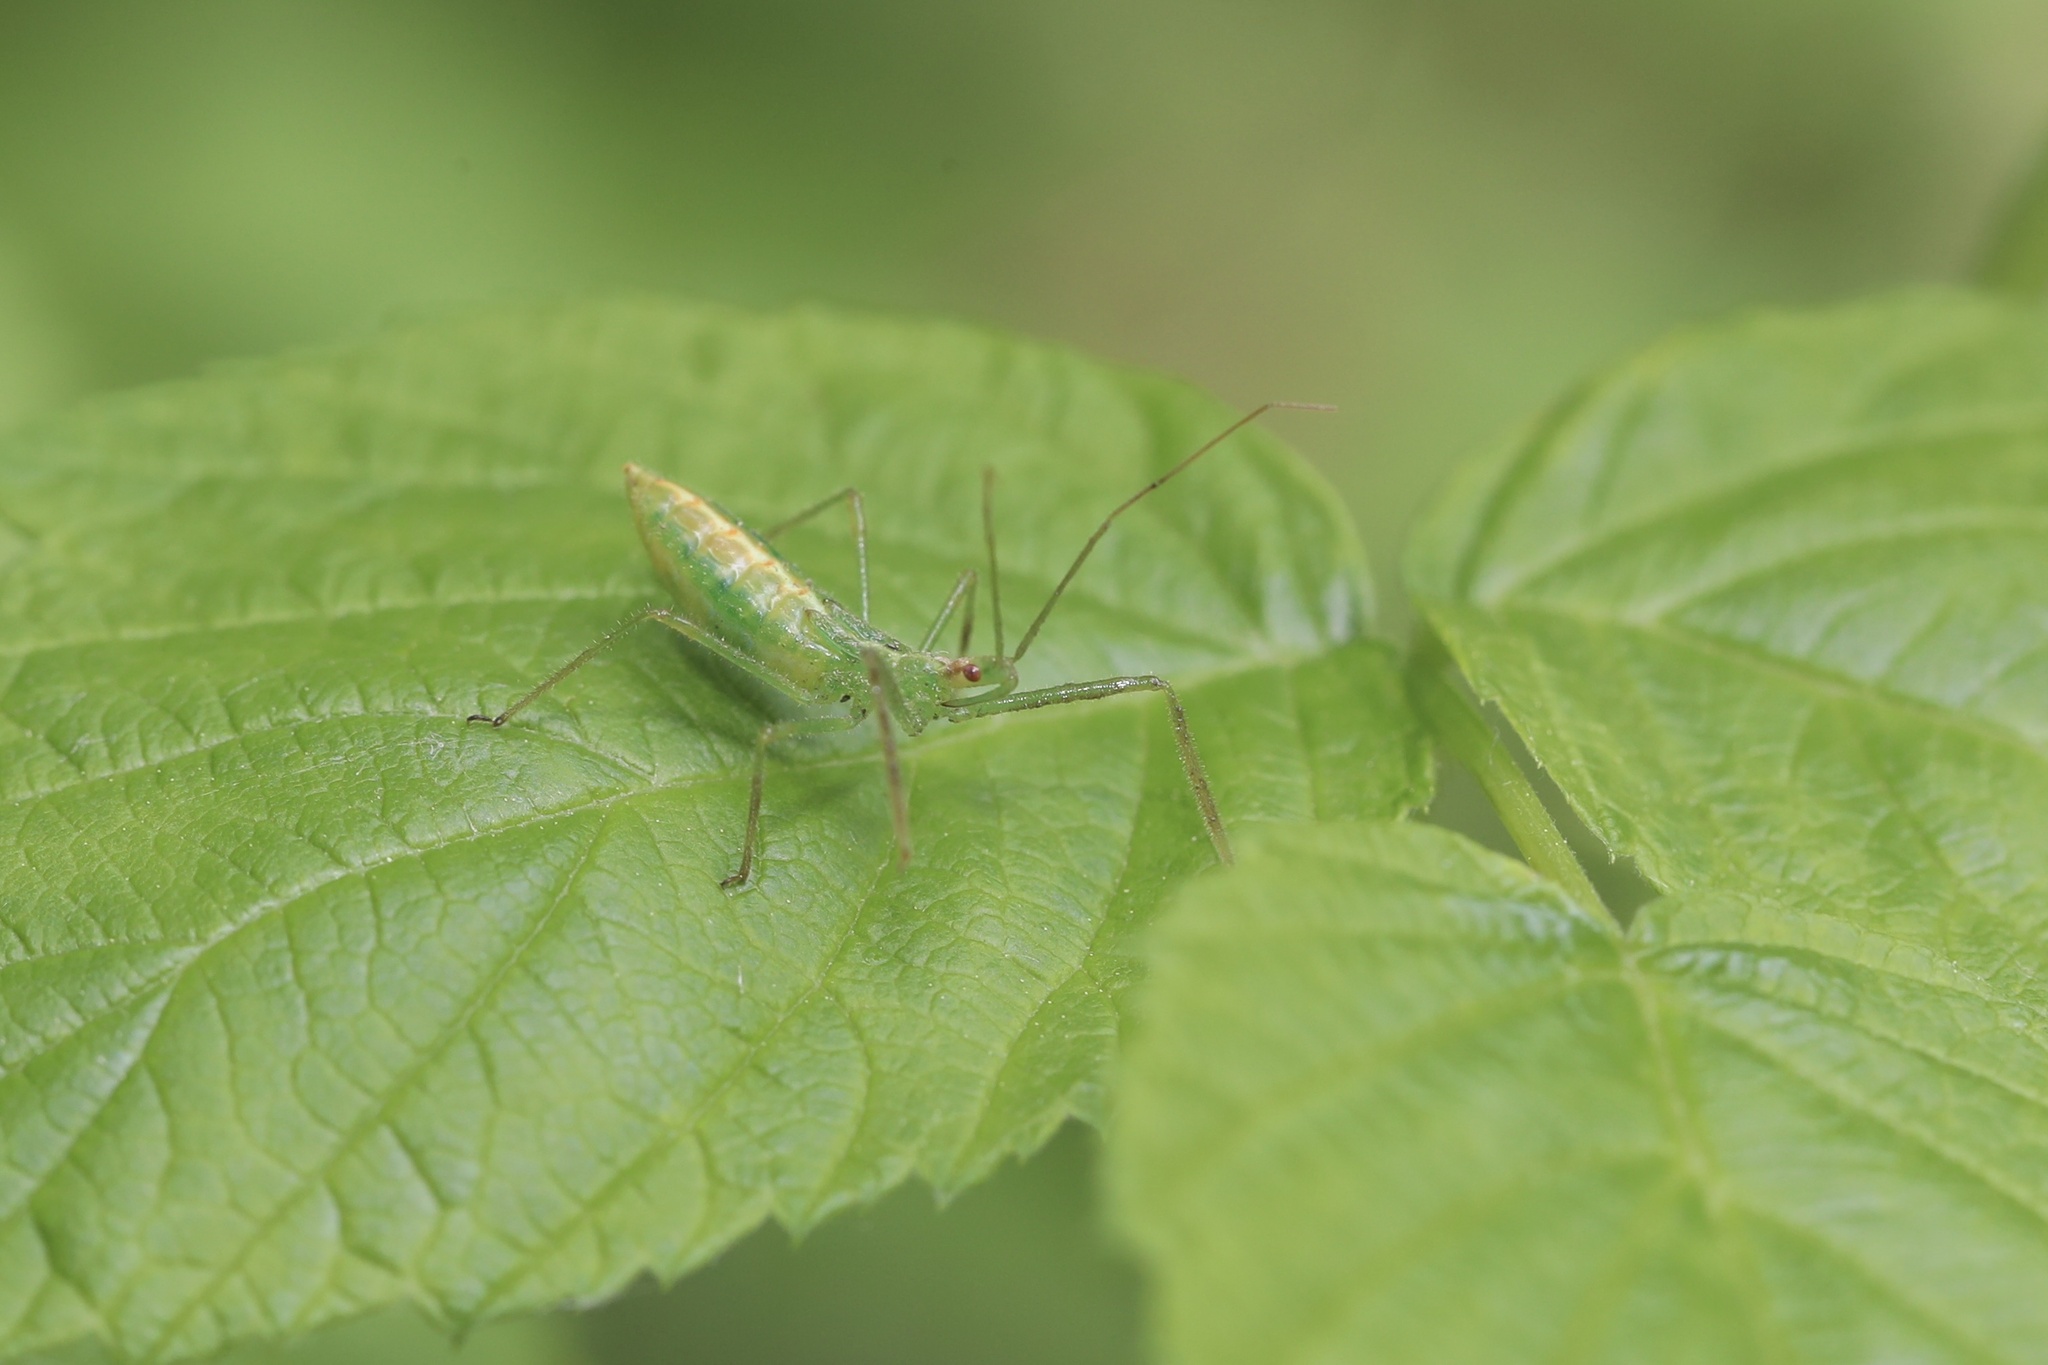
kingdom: Animalia
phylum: Arthropoda
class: Insecta
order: Hemiptera
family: Reduviidae
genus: Zelus
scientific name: Zelus luridus
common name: Pale green assassin bug
